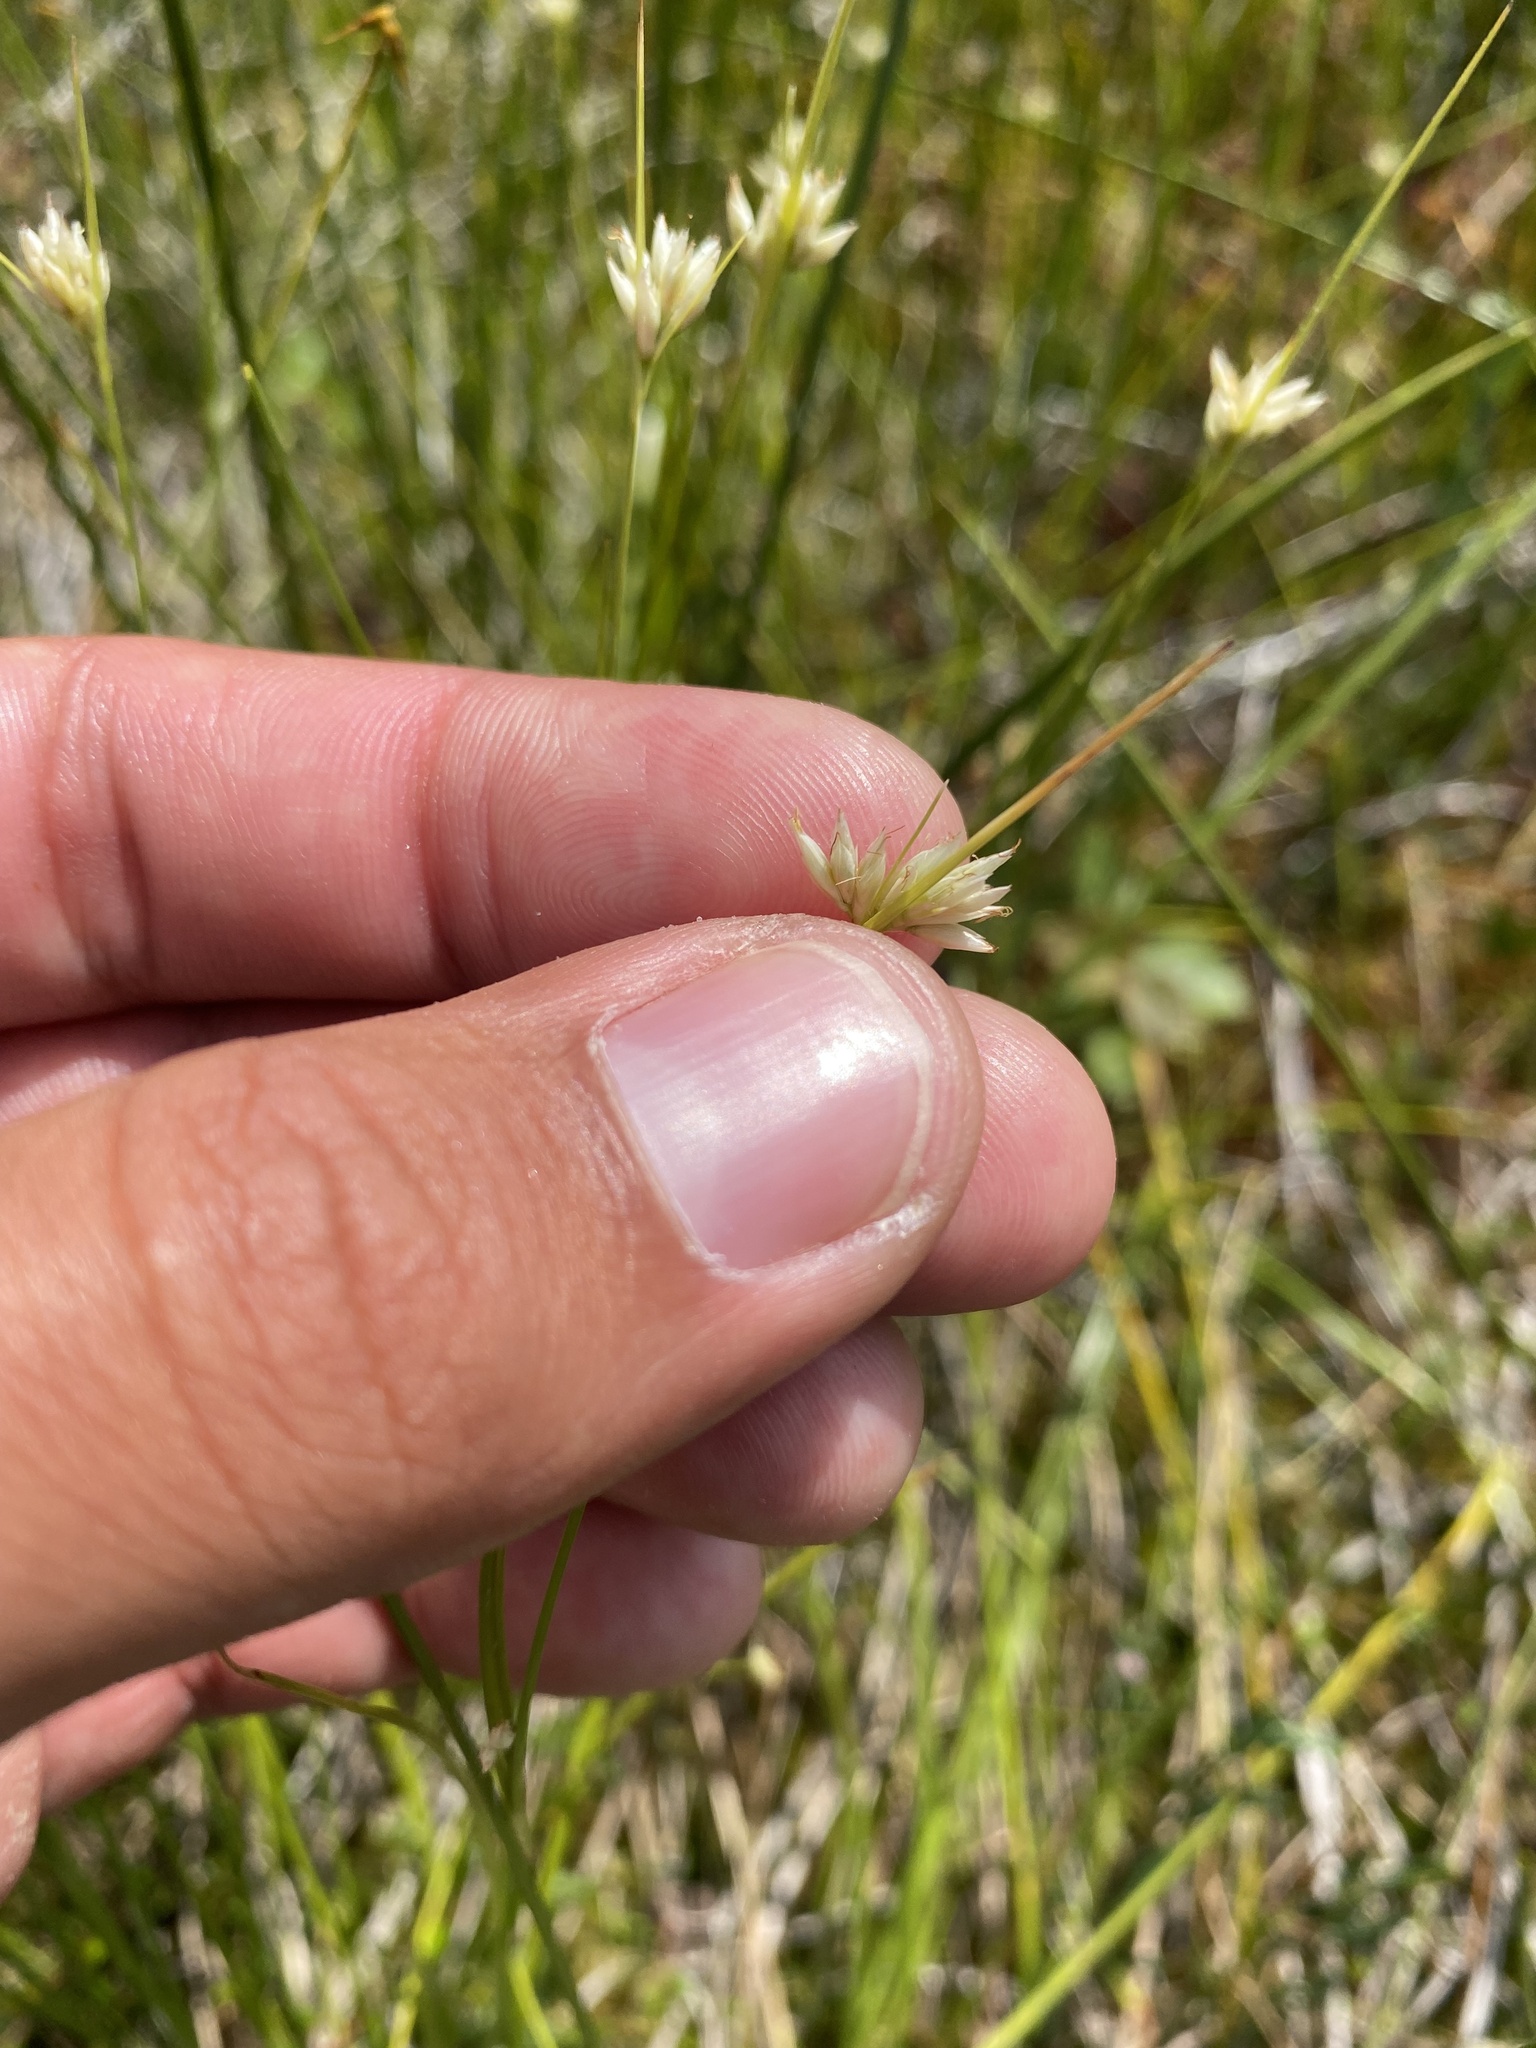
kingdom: Plantae
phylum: Tracheophyta
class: Liliopsida
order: Poales
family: Cyperaceae
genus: Rhynchospora
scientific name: Rhynchospora alba
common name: White beak-sedge
